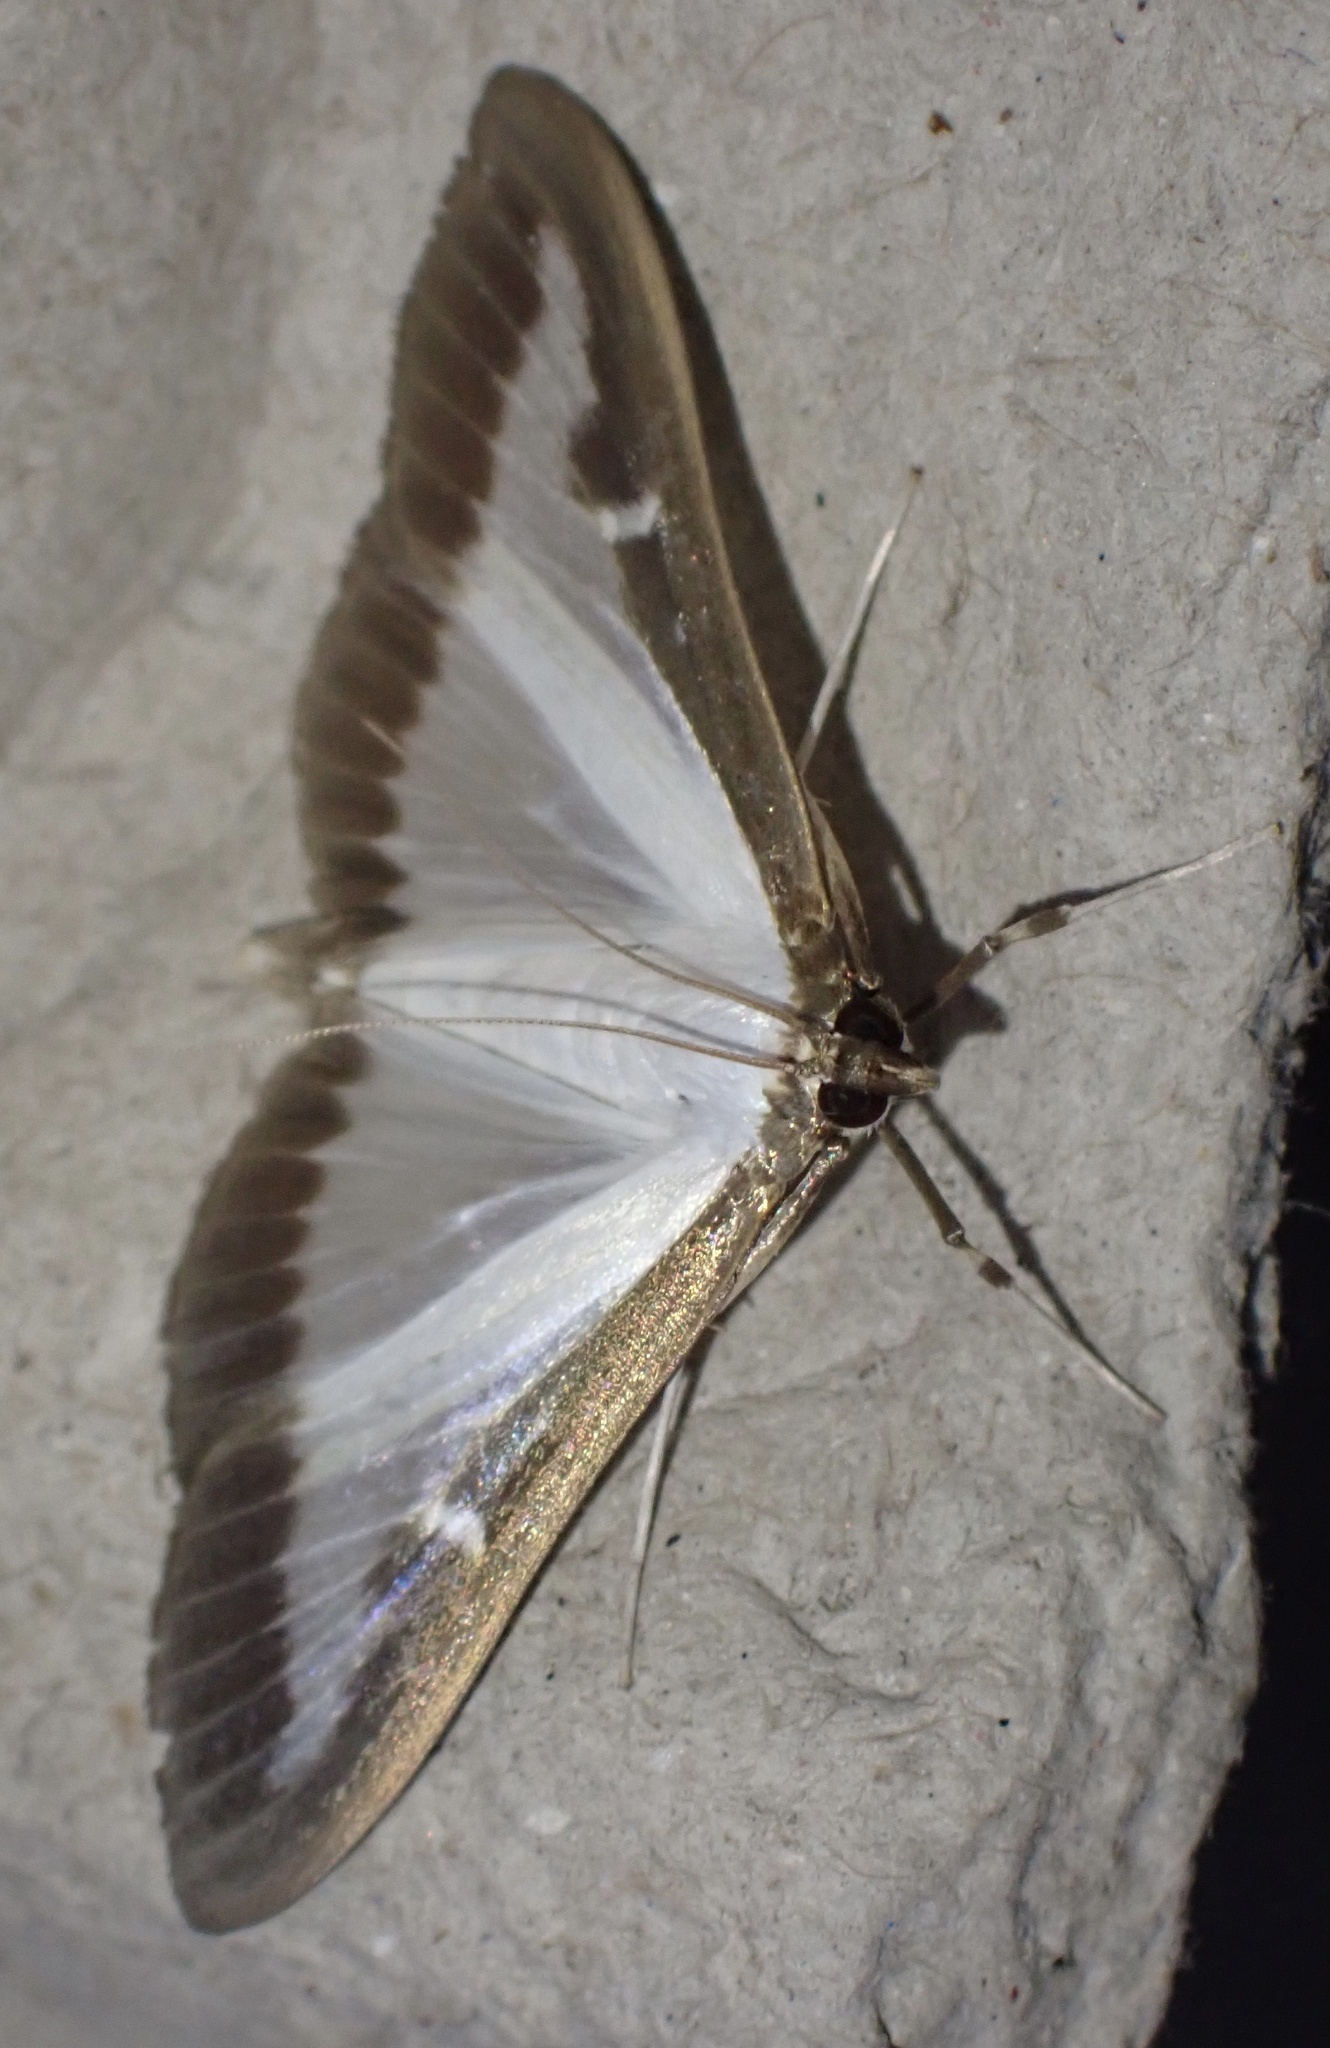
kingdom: Animalia
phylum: Arthropoda
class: Insecta
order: Lepidoptera
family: Crambidae
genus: Cydalima
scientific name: Cydalima perspectalis
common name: Box tree moth
